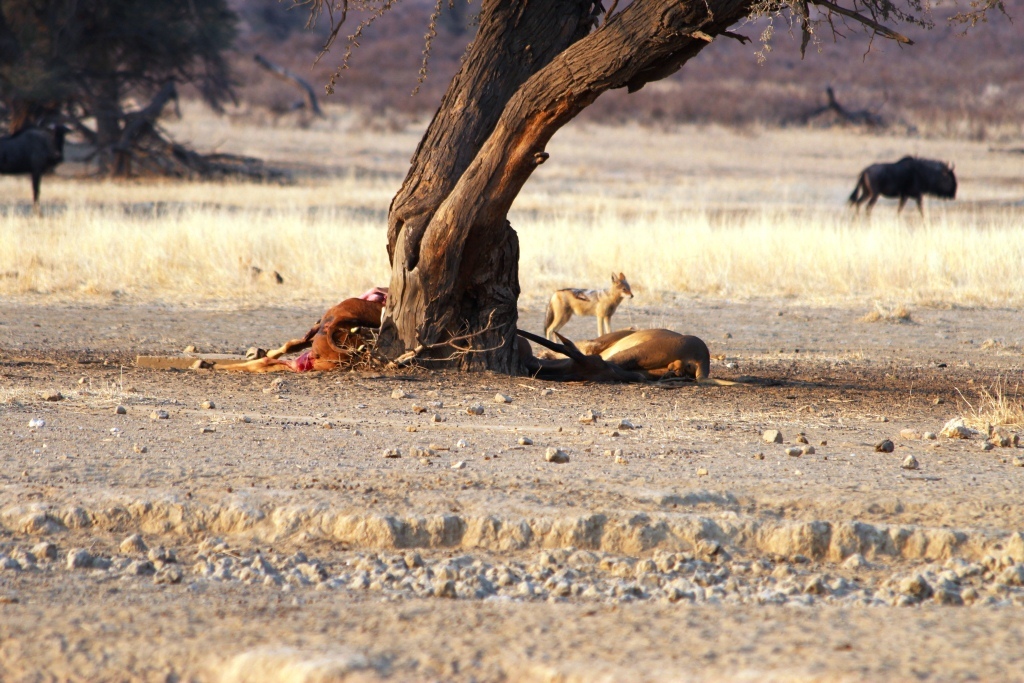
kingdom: Animalia
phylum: Chordata
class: Mammalia
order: Carnivora
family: Felidae
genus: Panthera
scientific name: Panthera leo
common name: Lion
